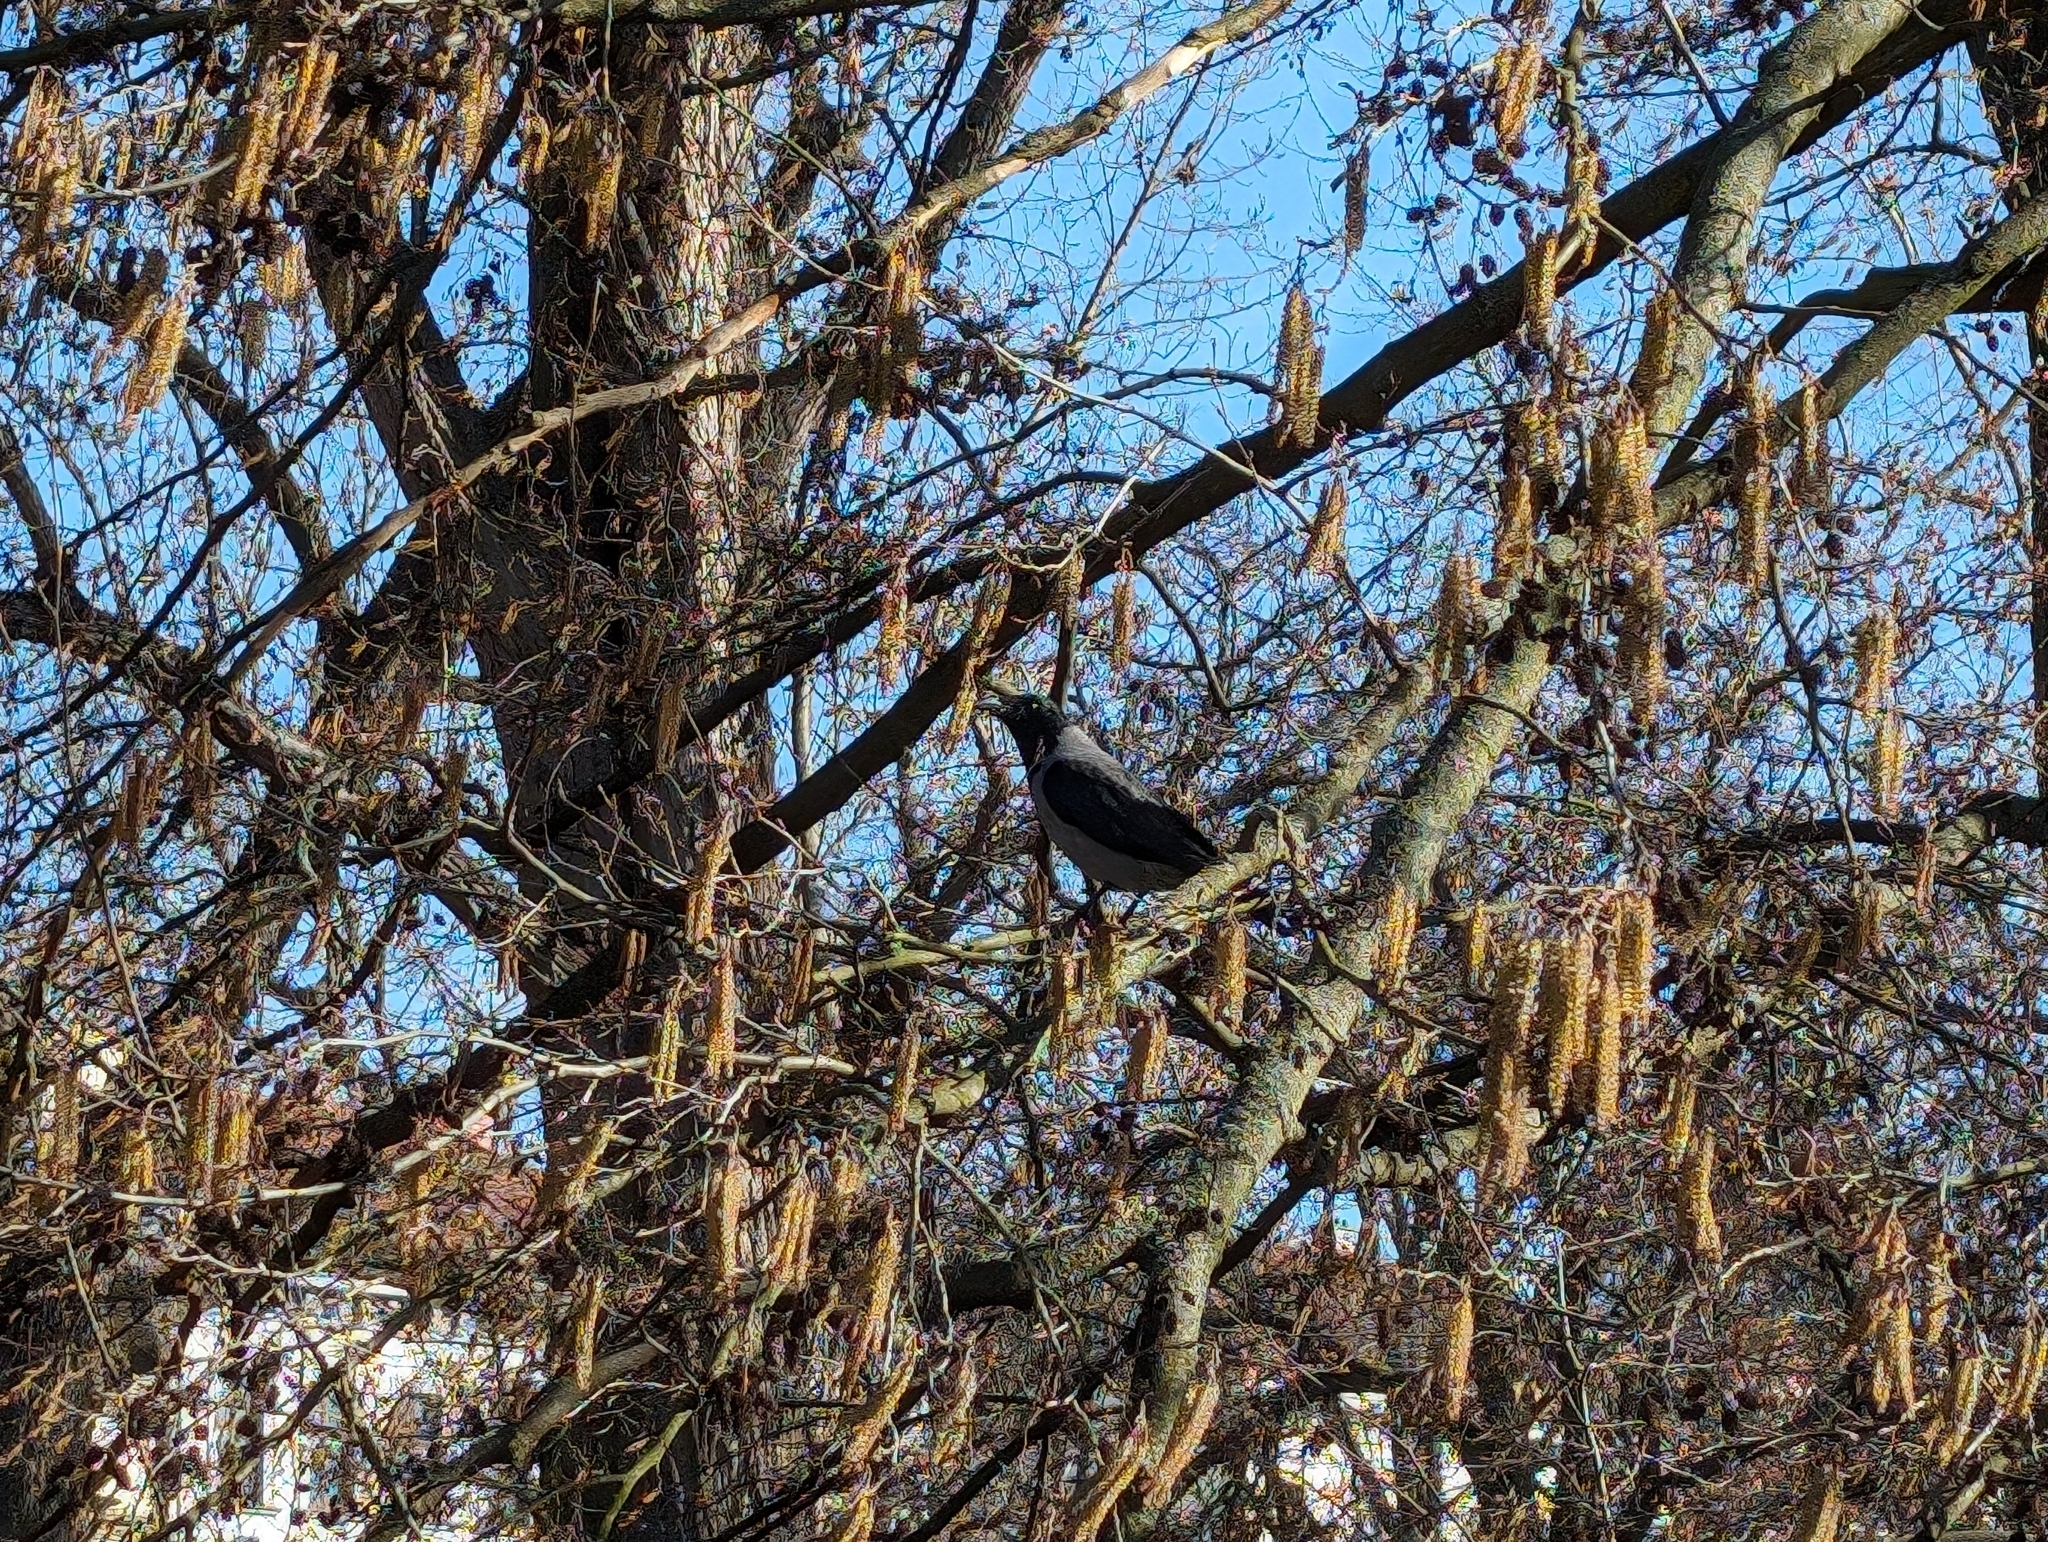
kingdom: Animalia
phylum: Chordata
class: Aves
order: Passeriformes
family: Corvidae
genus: Corvus
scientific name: Corvus cornix
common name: Hooded crow
